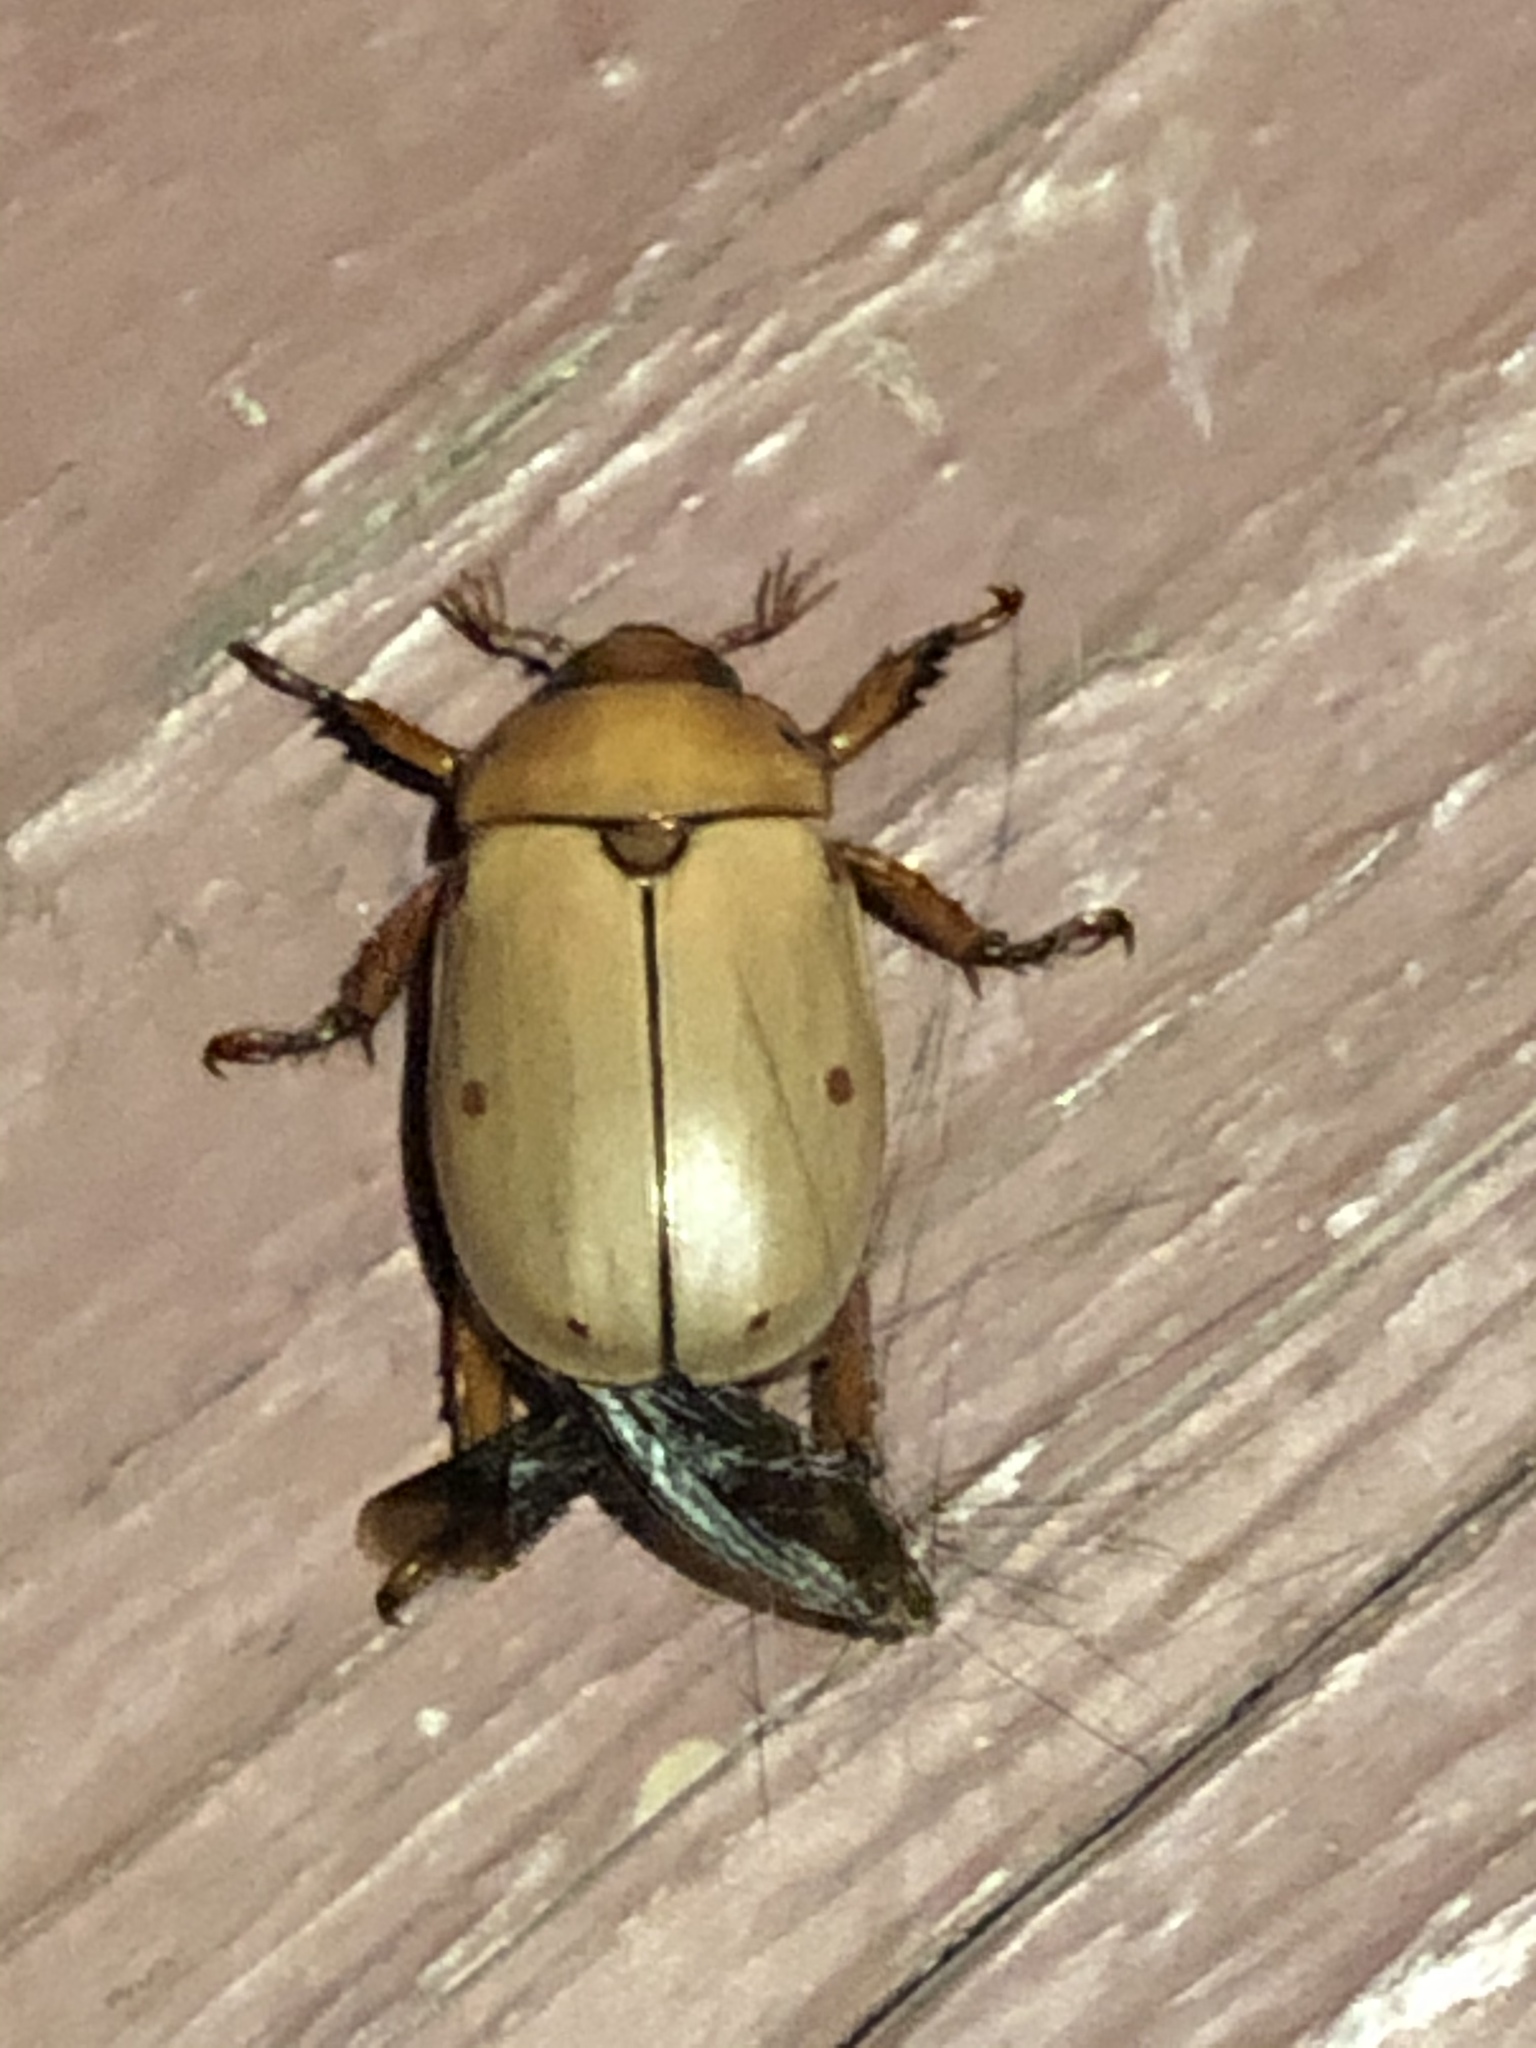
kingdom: Animalia
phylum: Arthropoda
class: Insecta
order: Coleoptera
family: Scarabaeidae
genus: Pelidnota
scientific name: Pelidnota punctata
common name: Grapevine beetle
